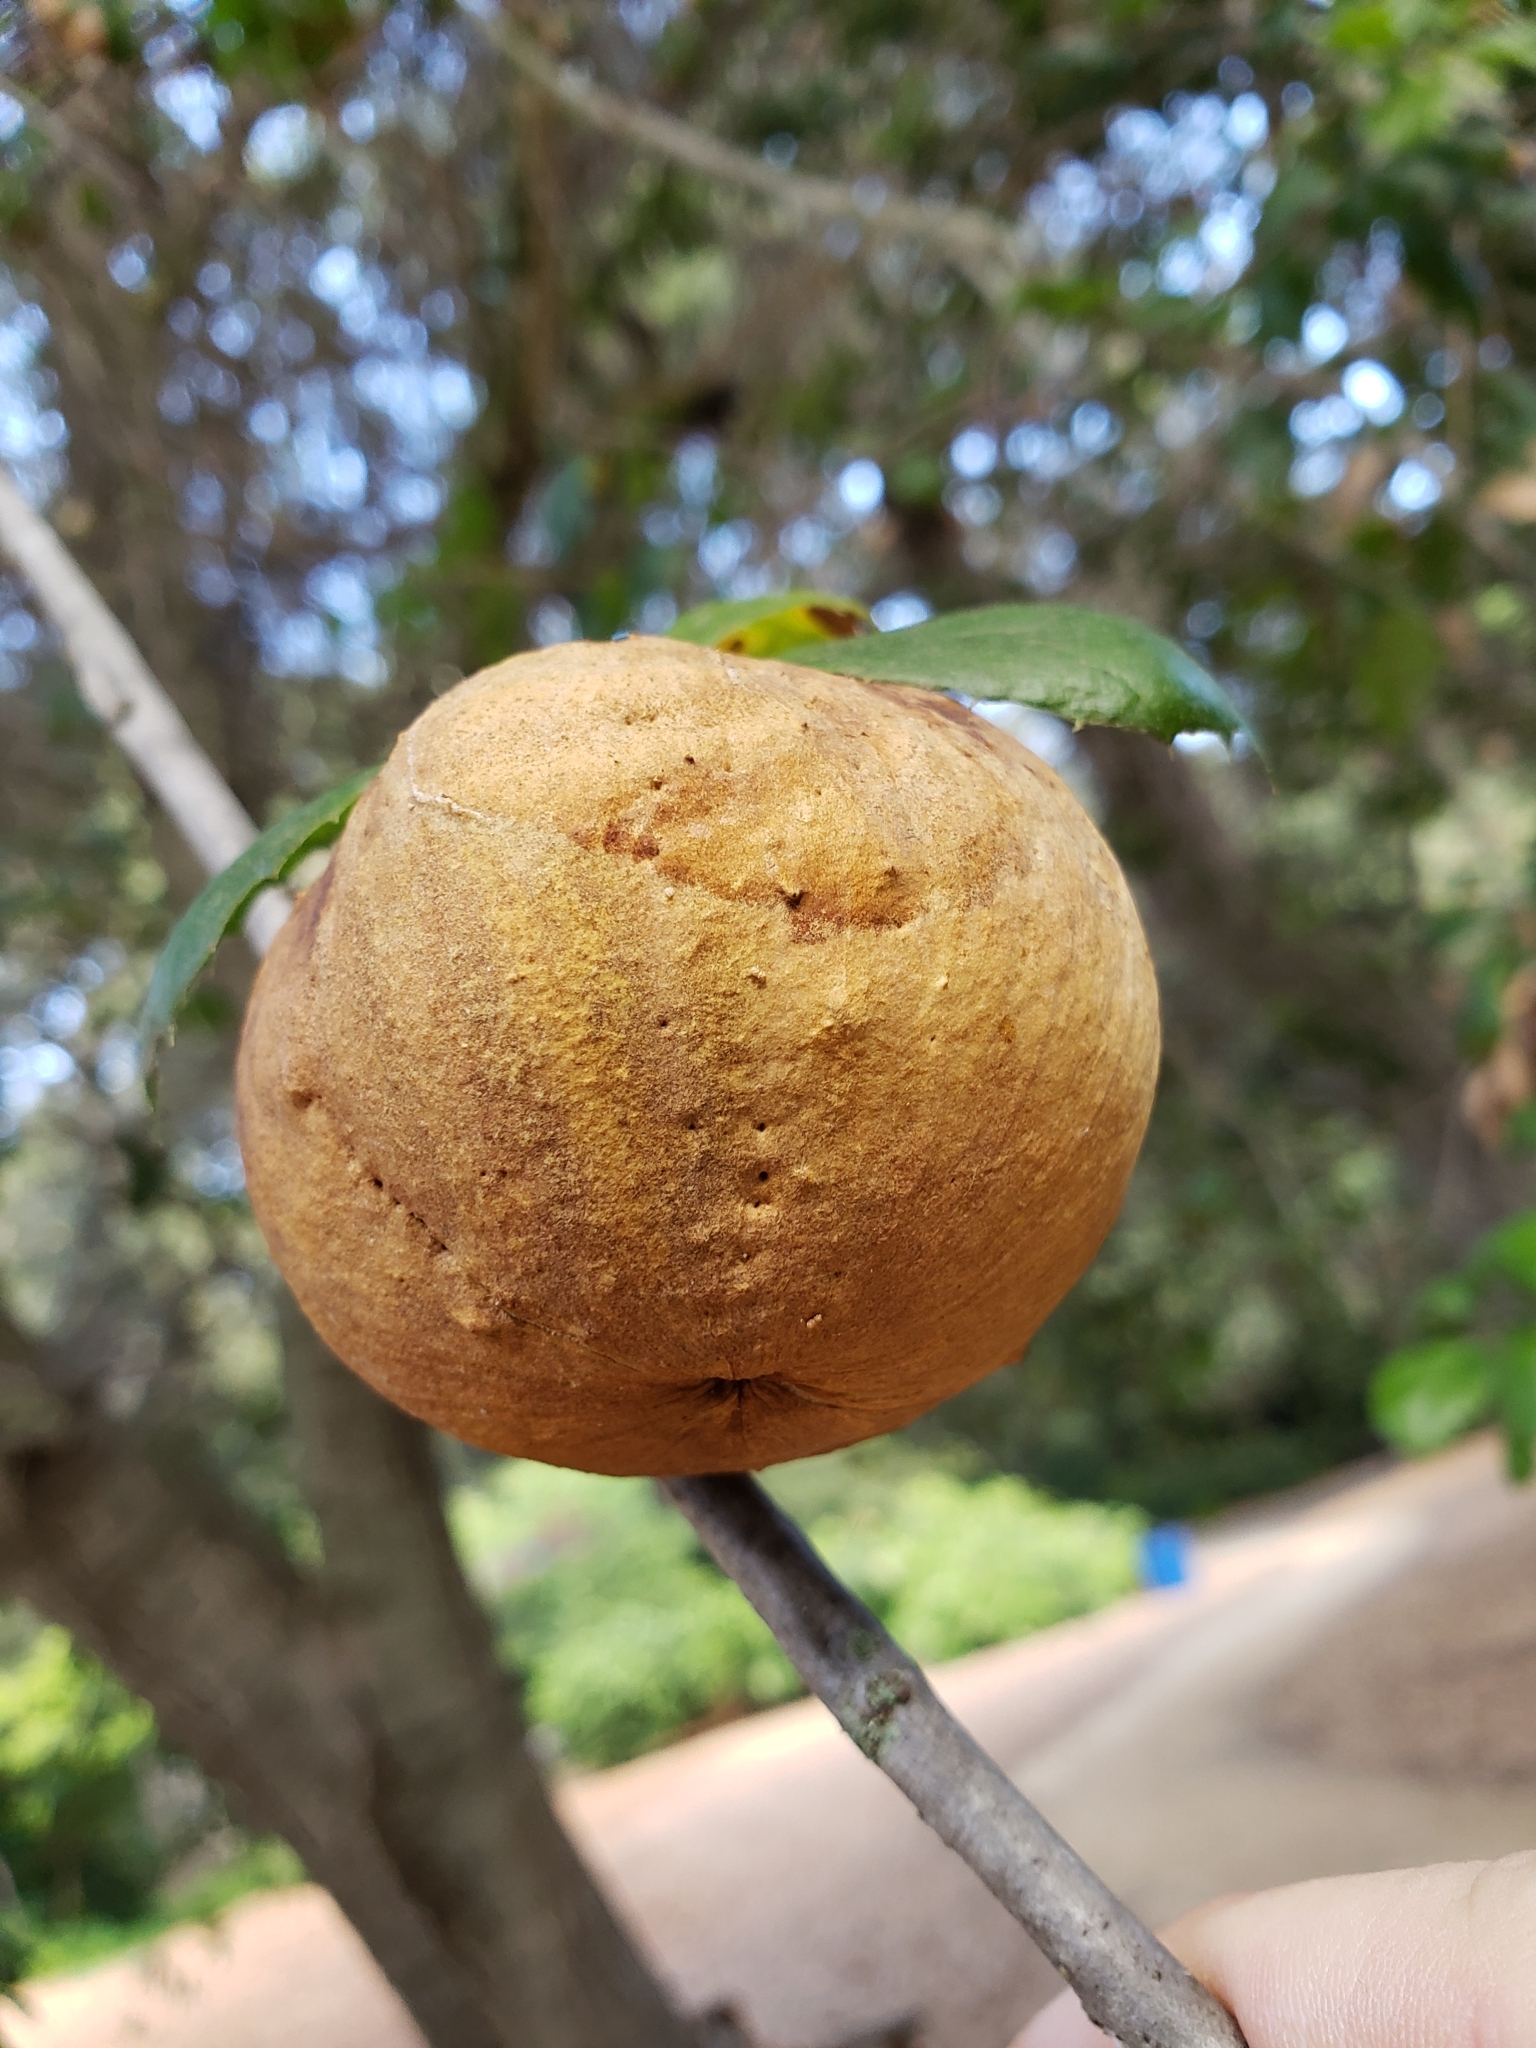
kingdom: Animalia
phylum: Arthropoda
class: Insecta
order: Hymenoptera
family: Cynipidae
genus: Andricus
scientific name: Andricus quercuscalifornicus
